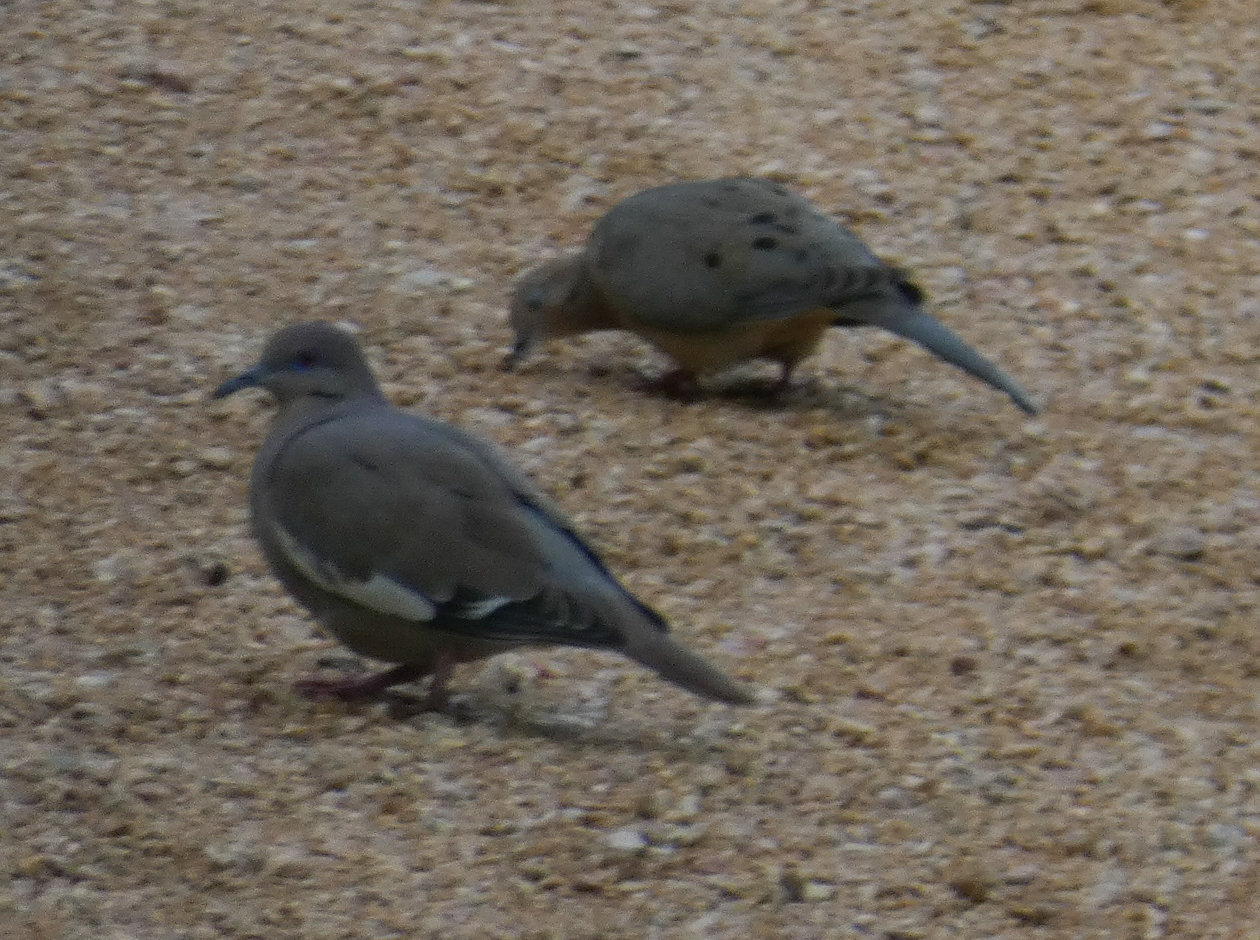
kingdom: Animalia
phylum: Chordata
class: Aves
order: Columbiformes
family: Columbidae
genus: Zenaida
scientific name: Zenaida asiatica
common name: White-winged dove
